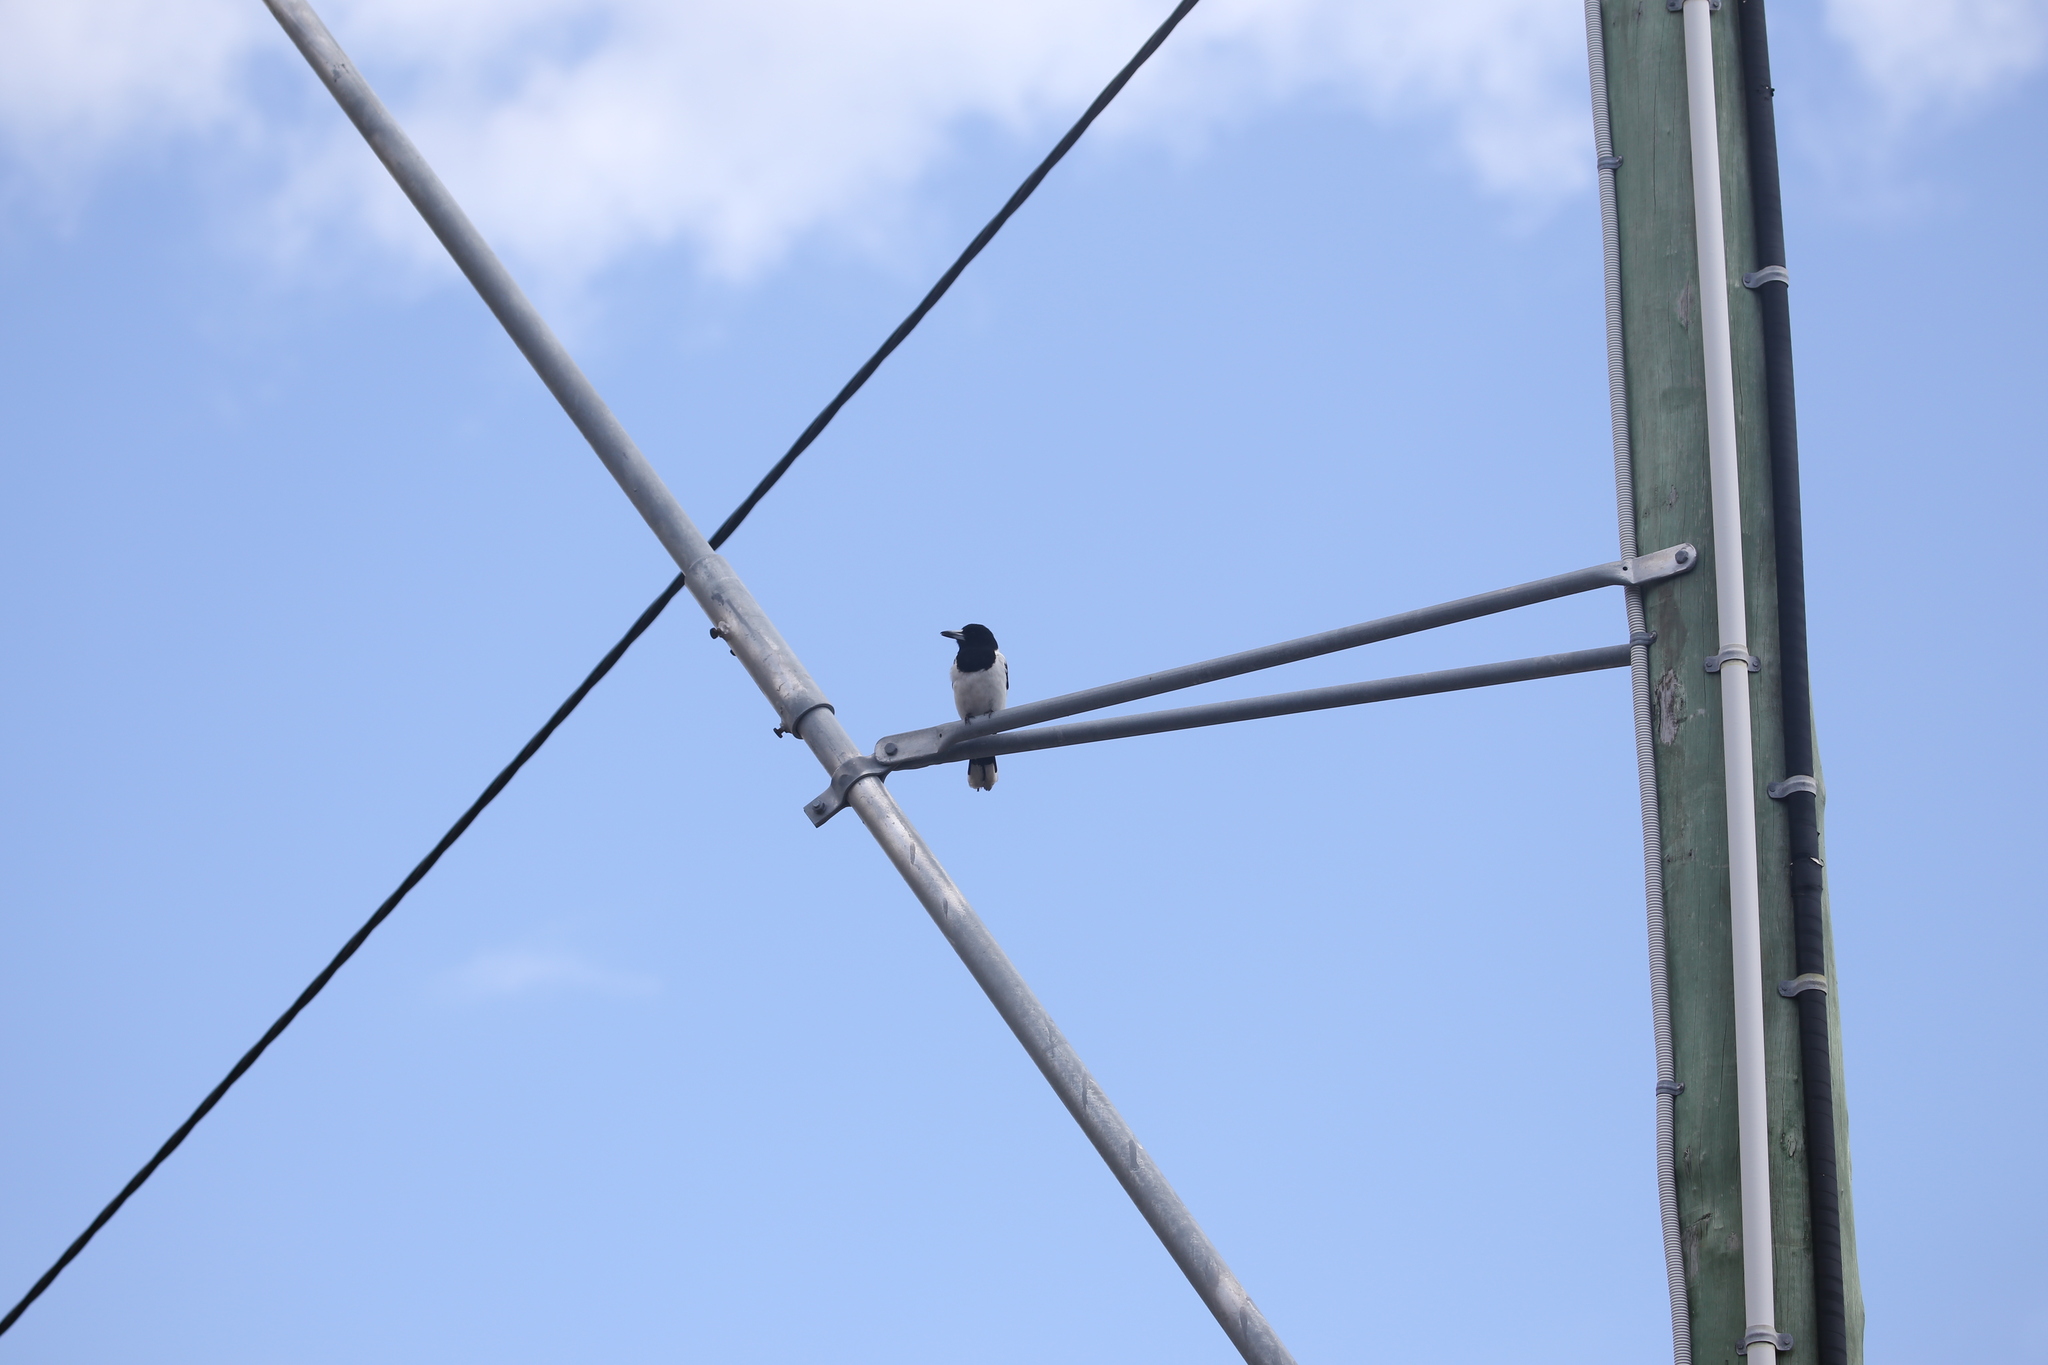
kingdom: Animalia
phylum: Chordata
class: Aves
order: Passeriformes
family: Cracticidae
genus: Cracticus
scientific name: Cracticus nigrogularis
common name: Pied butcherbird
